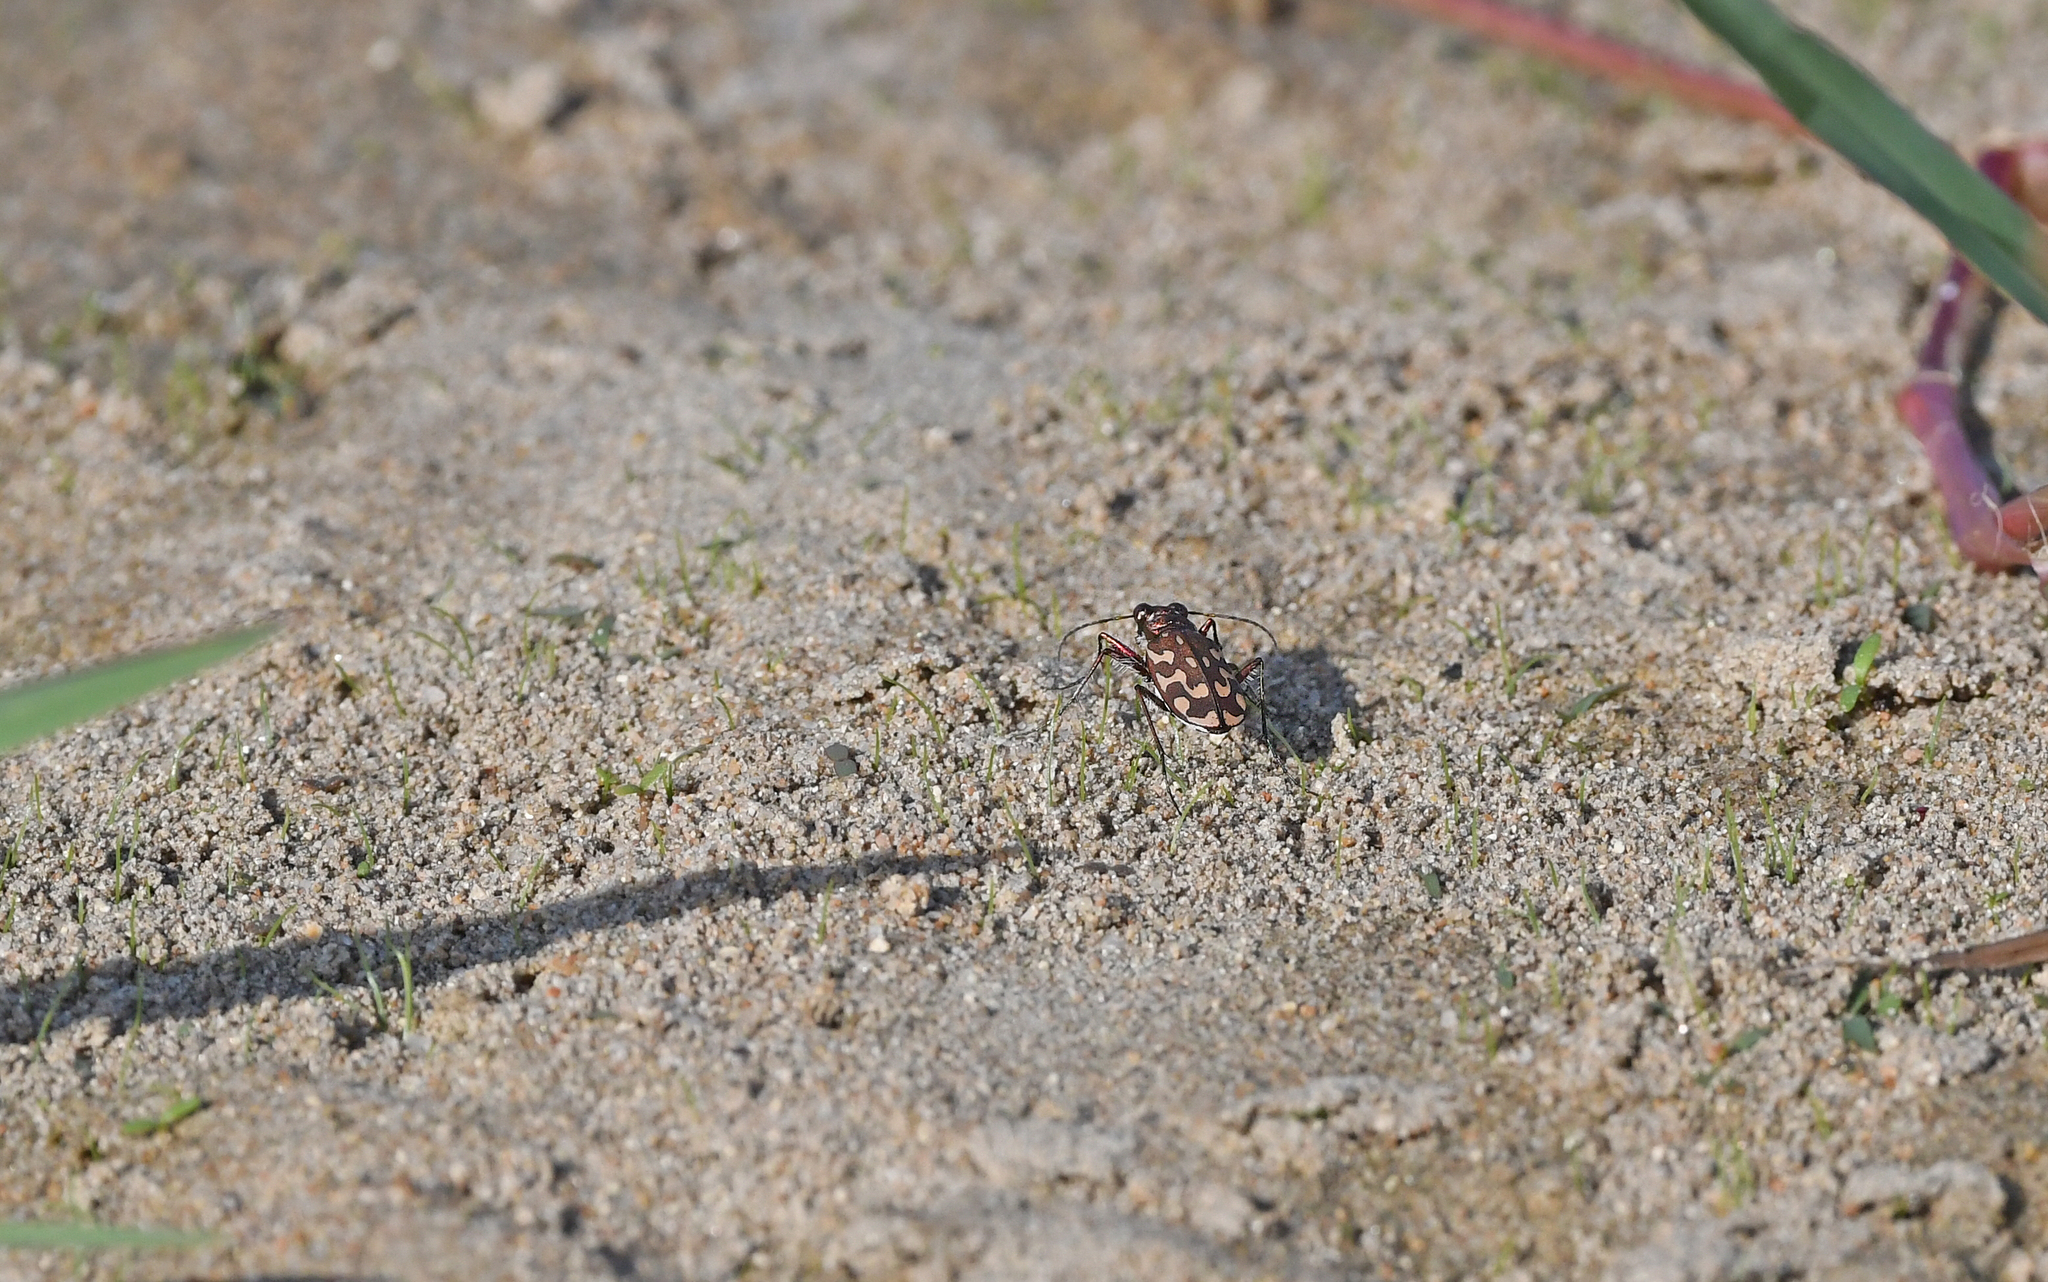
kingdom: Animalia
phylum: Arthropoda
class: Insecta
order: Coleoptera
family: Carabidae
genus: Lophyra
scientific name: Lophyra flexuosa
